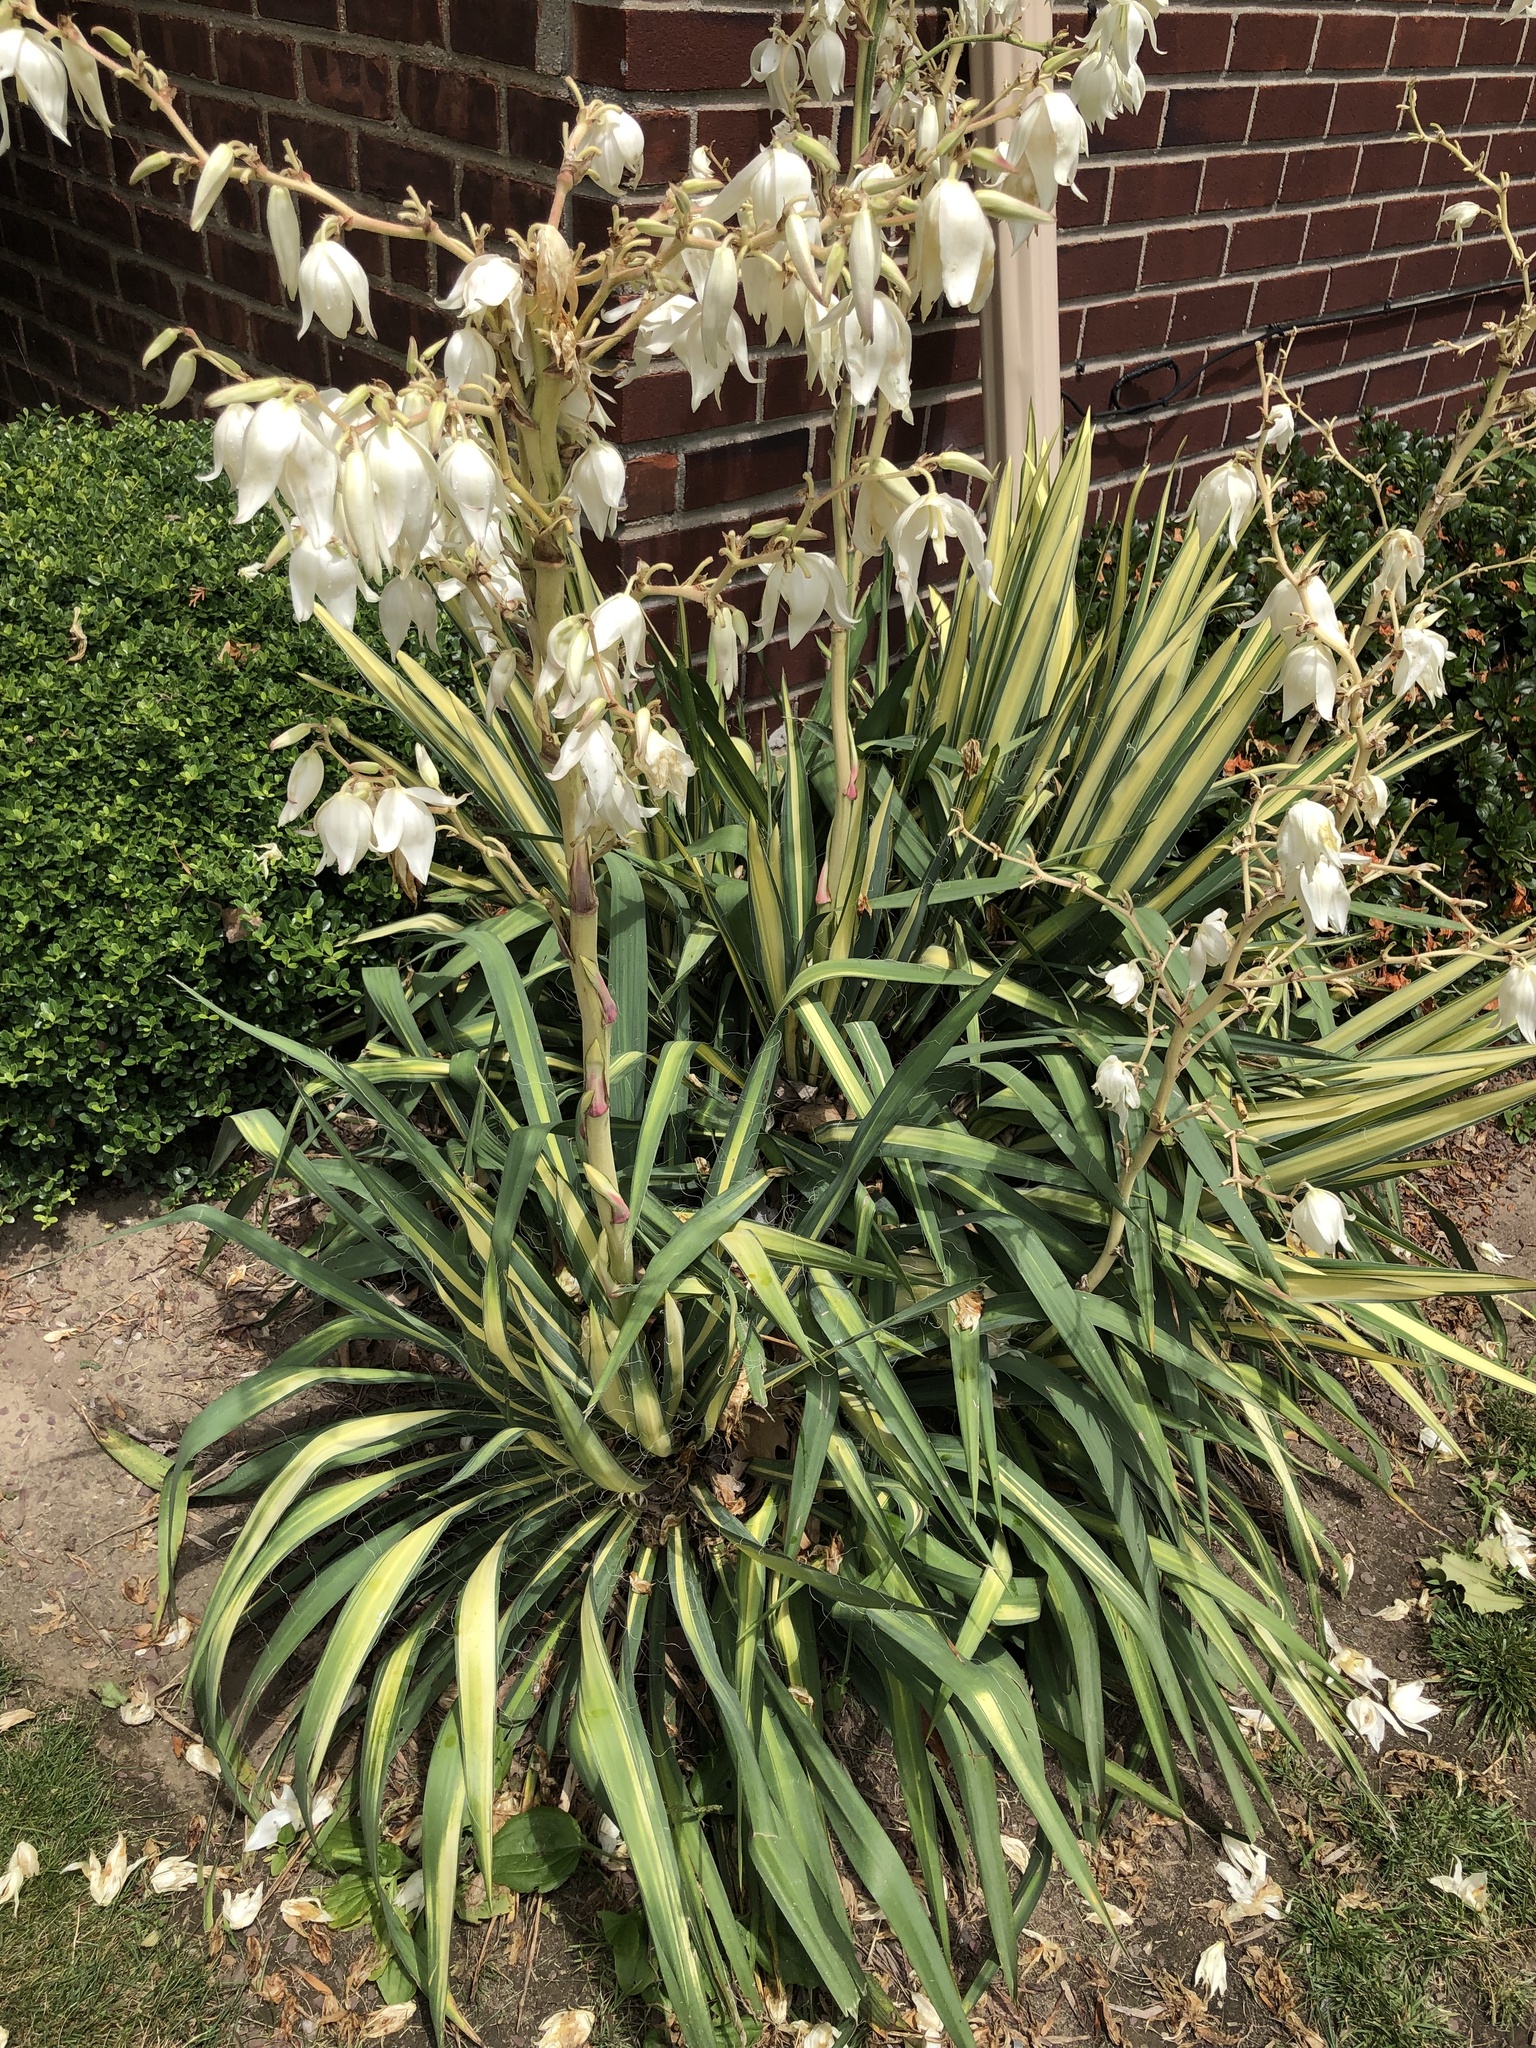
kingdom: Plantae
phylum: Tracheophyta
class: Liliopsida
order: Asparagales
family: Asparagaceae
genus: Yucca
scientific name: Yucca filamentosa
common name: Adam's-needle
